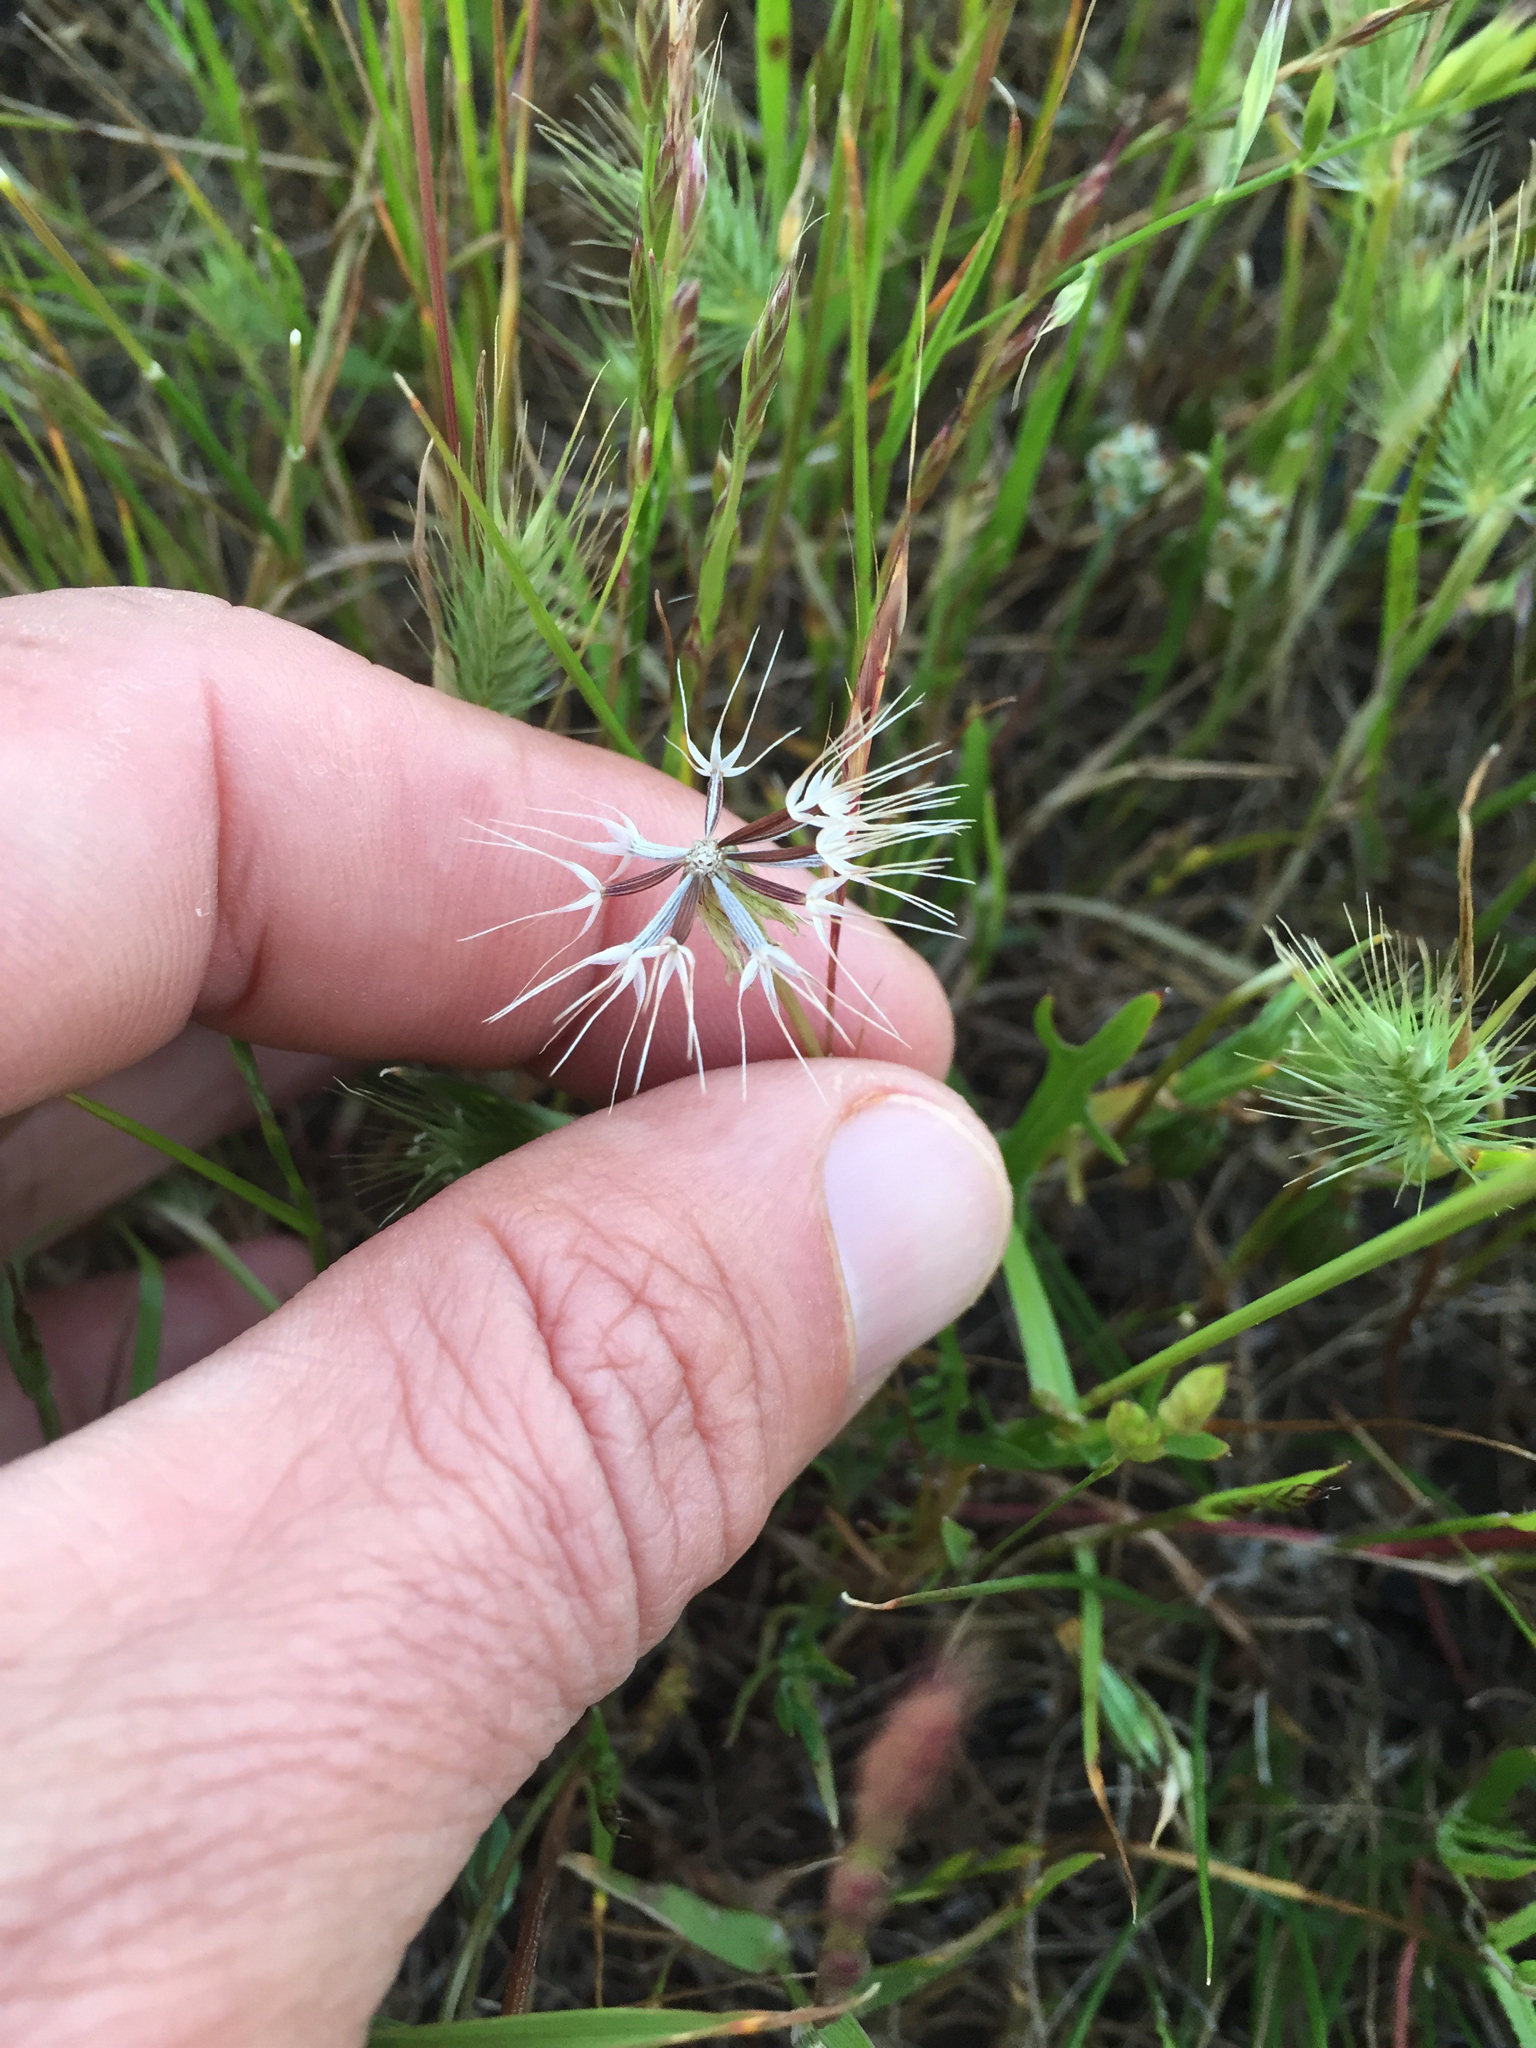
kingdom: Plantae
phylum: Tracheophyta
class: Magnoliopsida
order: Asterales
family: Asteraceae
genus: Microseris
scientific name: Microseris lindleyi
